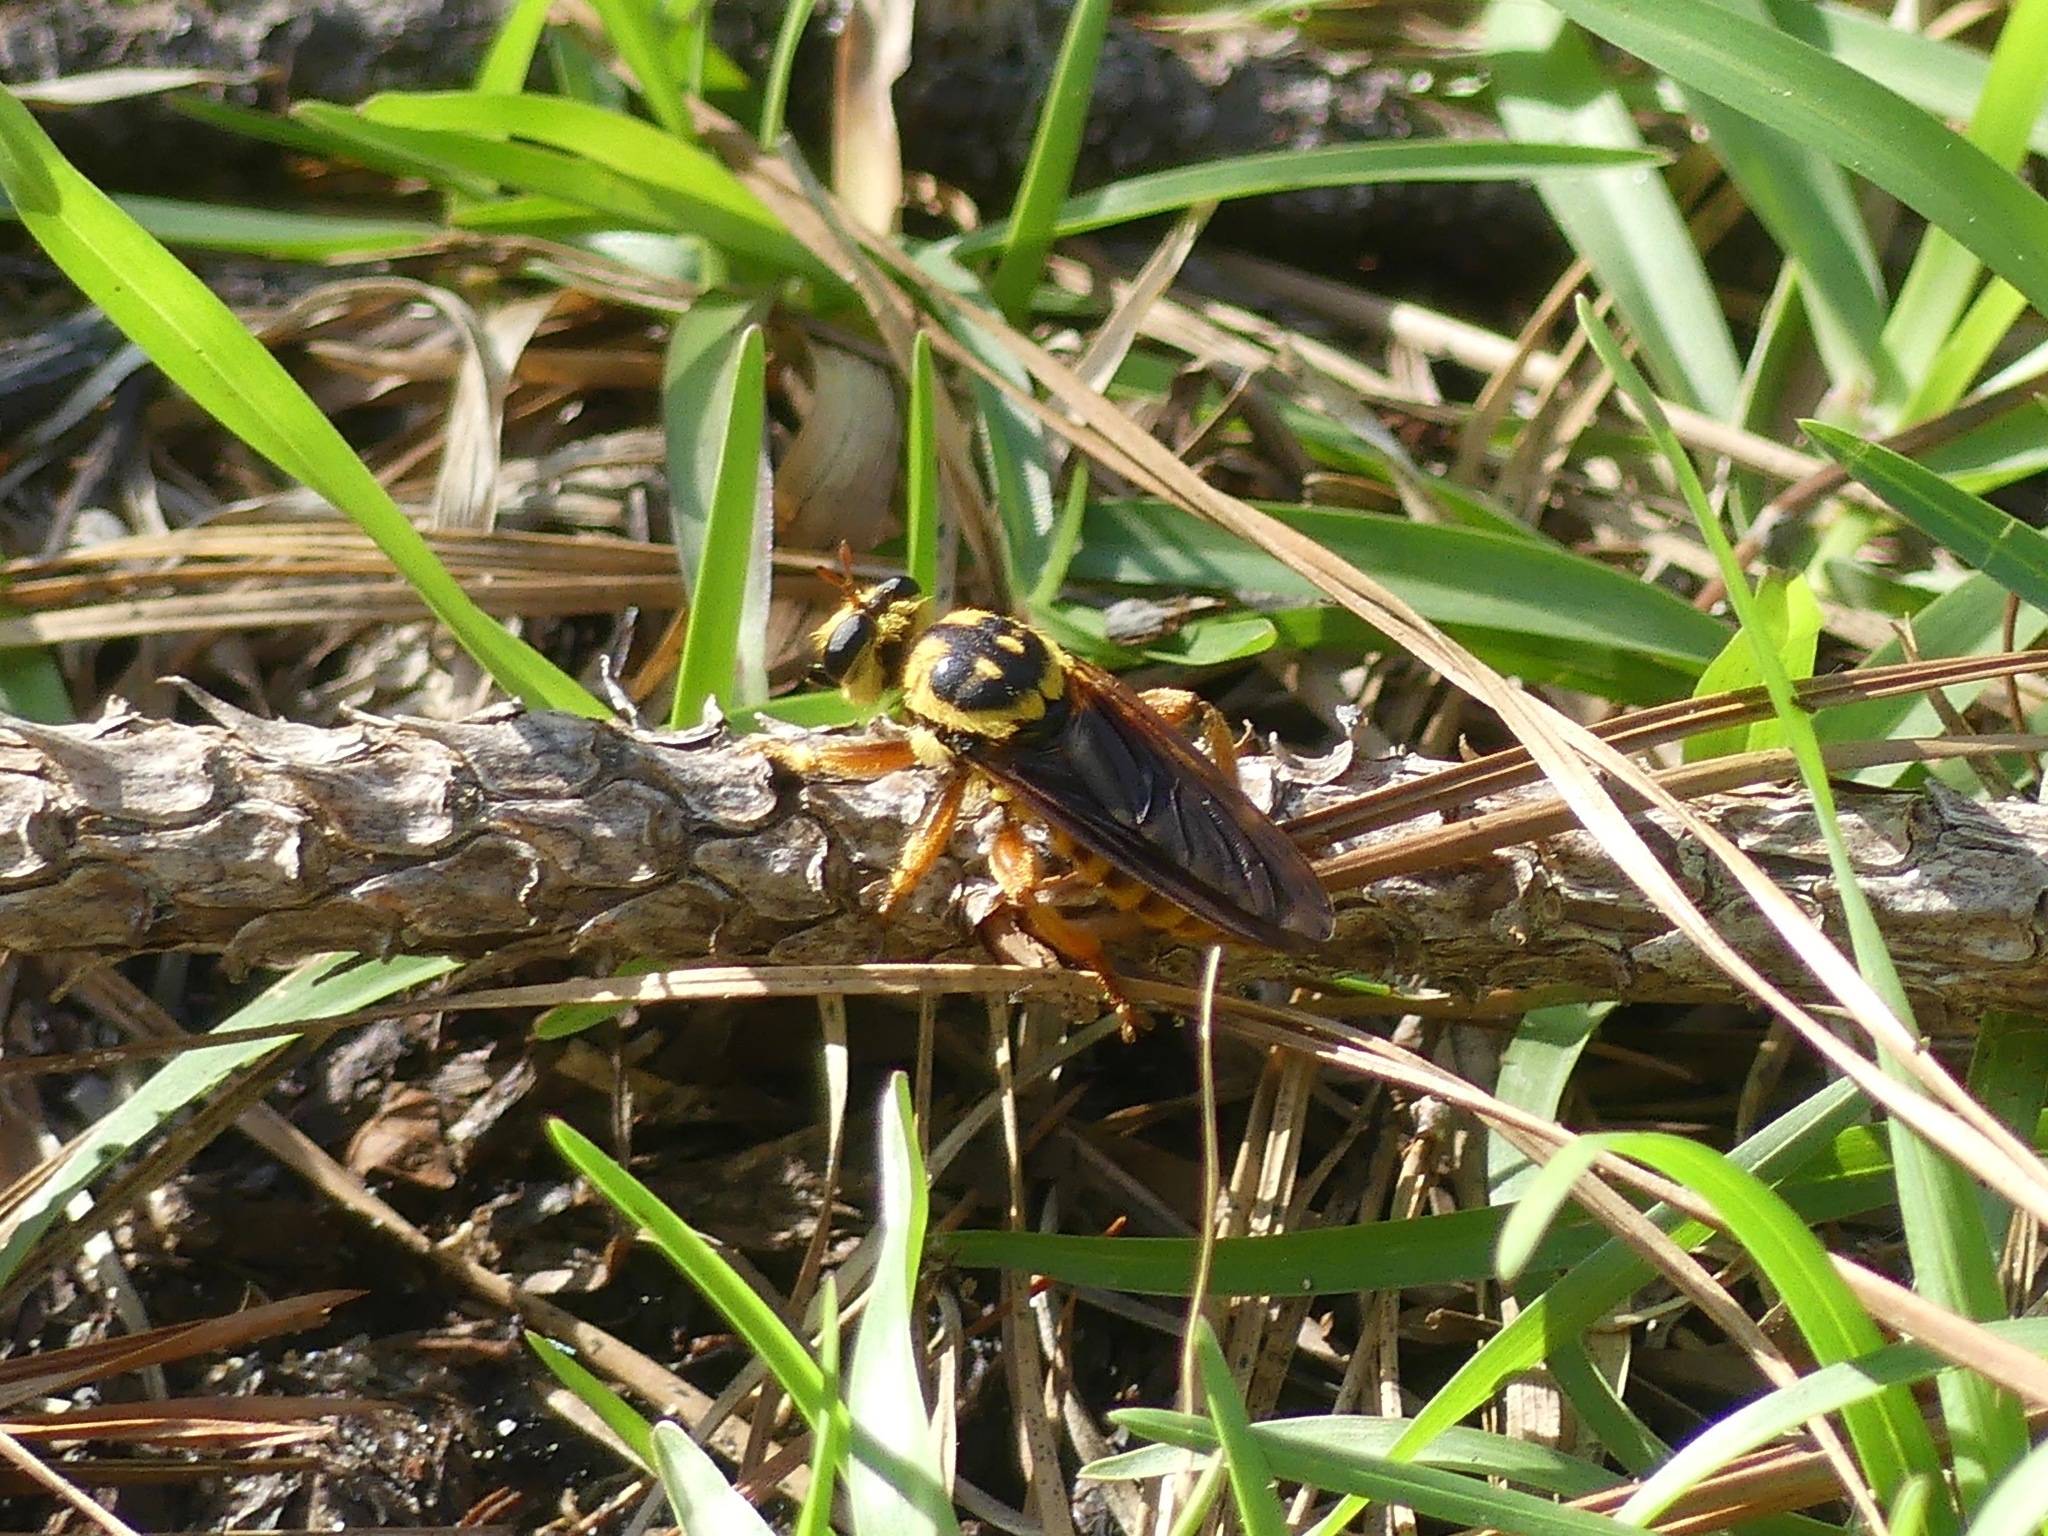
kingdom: Animalia
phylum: Arthropoda
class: Insecta
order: Diptera
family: Asilidae
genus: Laphria
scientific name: Laphria saffrana
